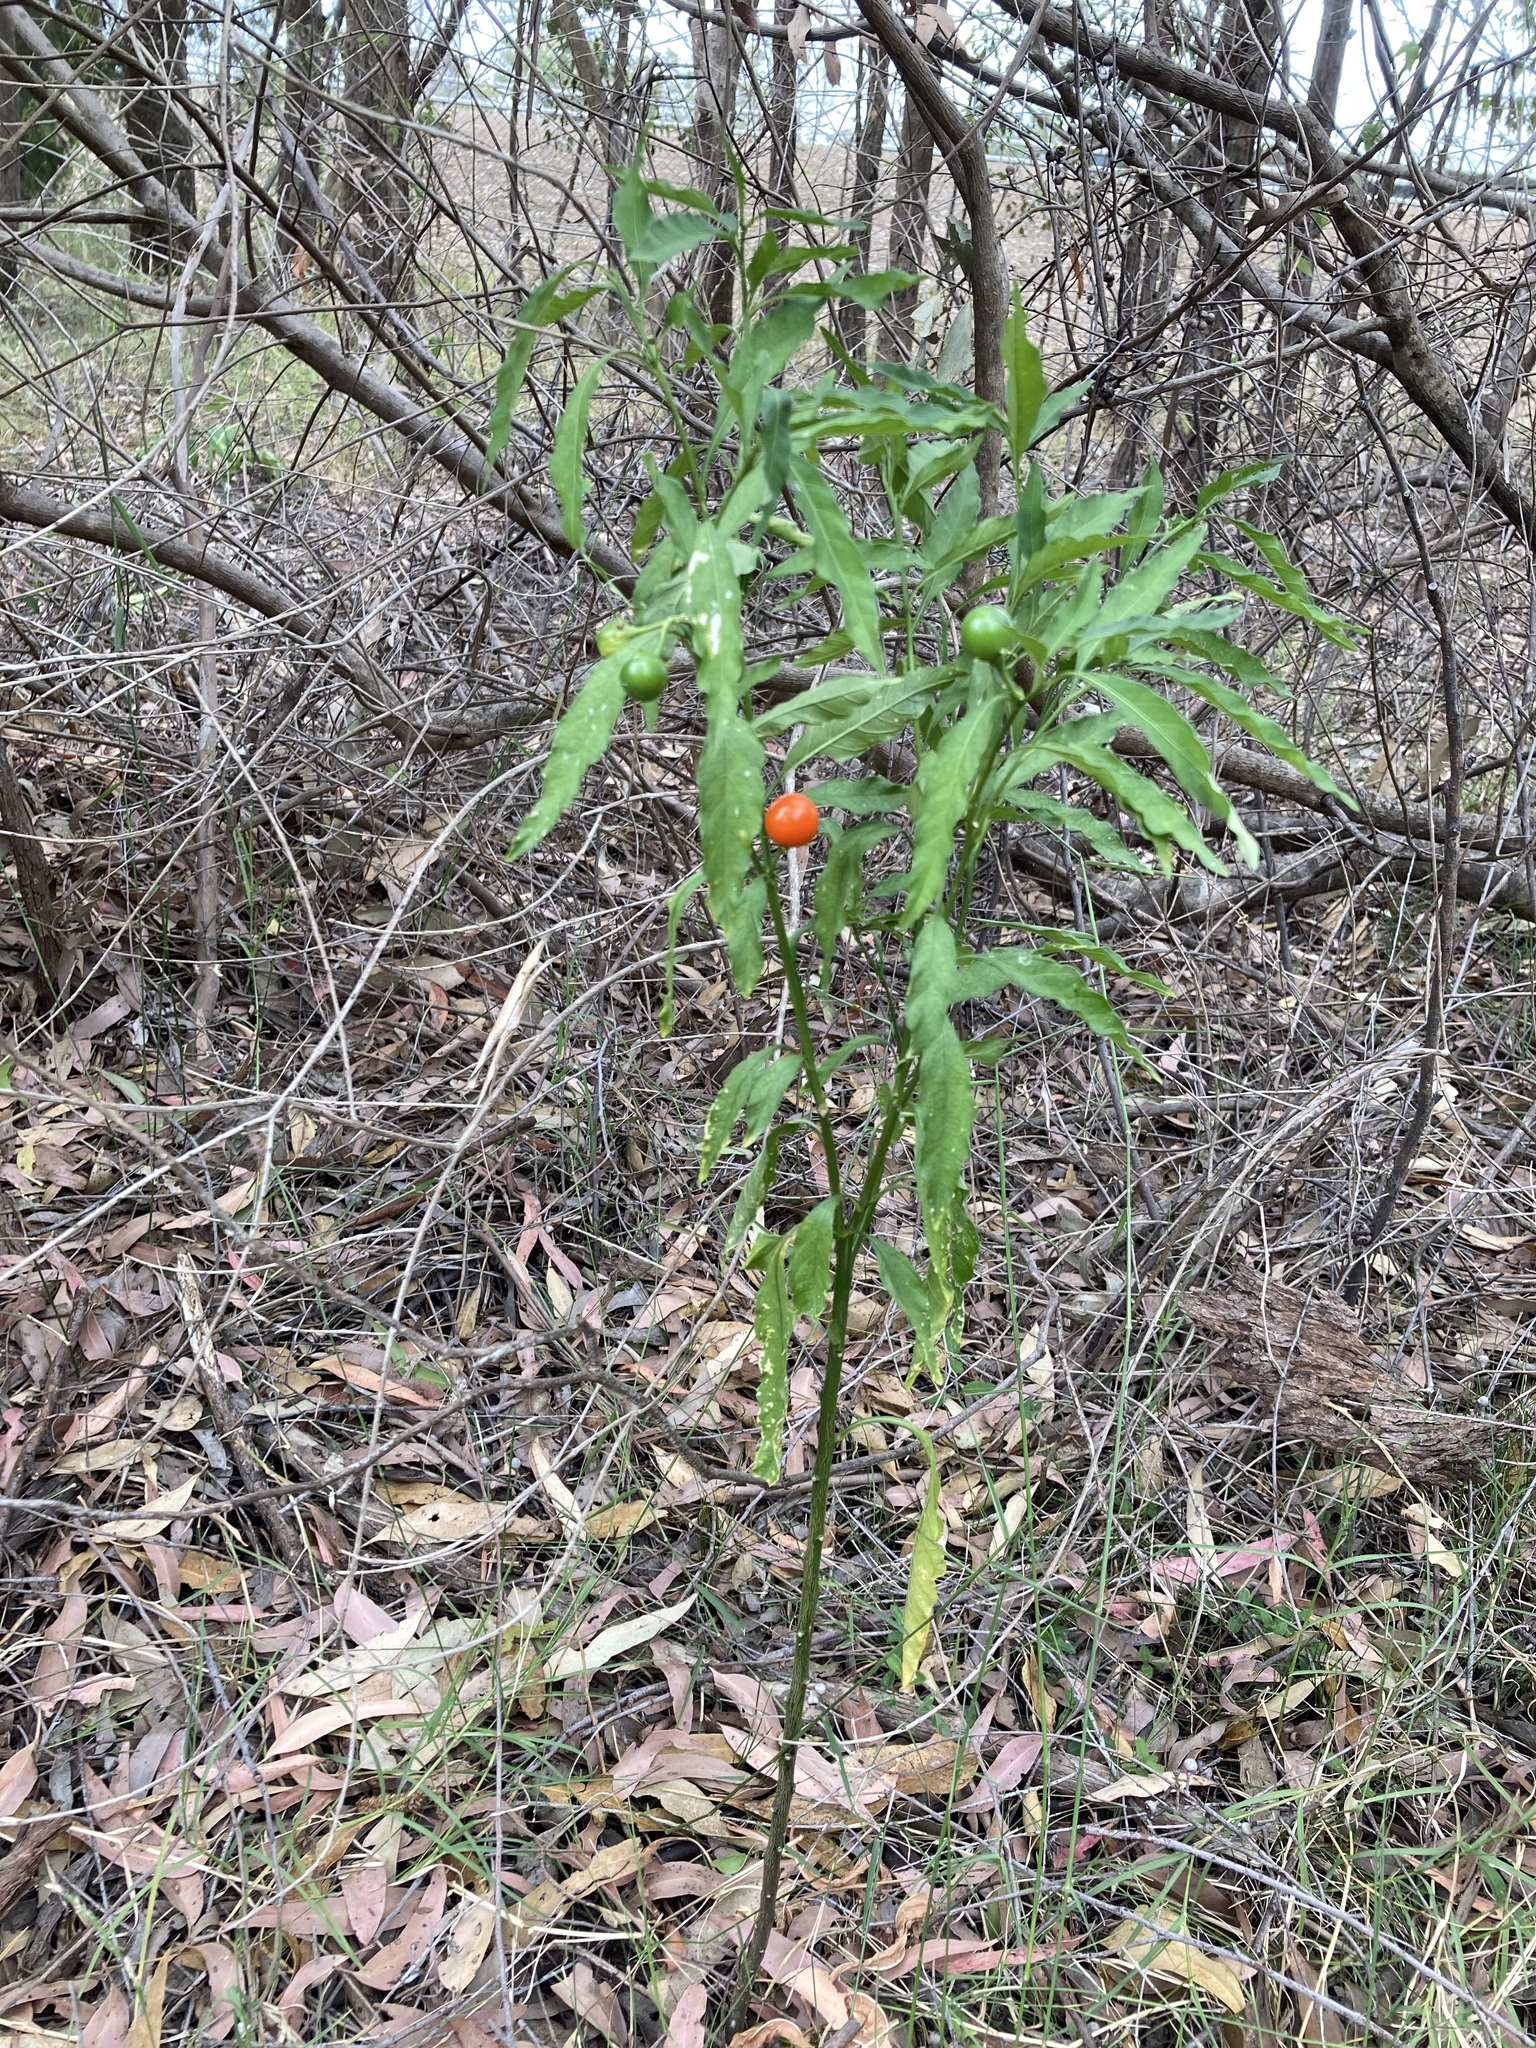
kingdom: Plantae
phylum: Tracheophyta
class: Magnoliopsida
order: Solanales
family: Solanaceae
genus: Solanum
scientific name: Solanum pseudocapsicum
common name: Jerusalem cherry
